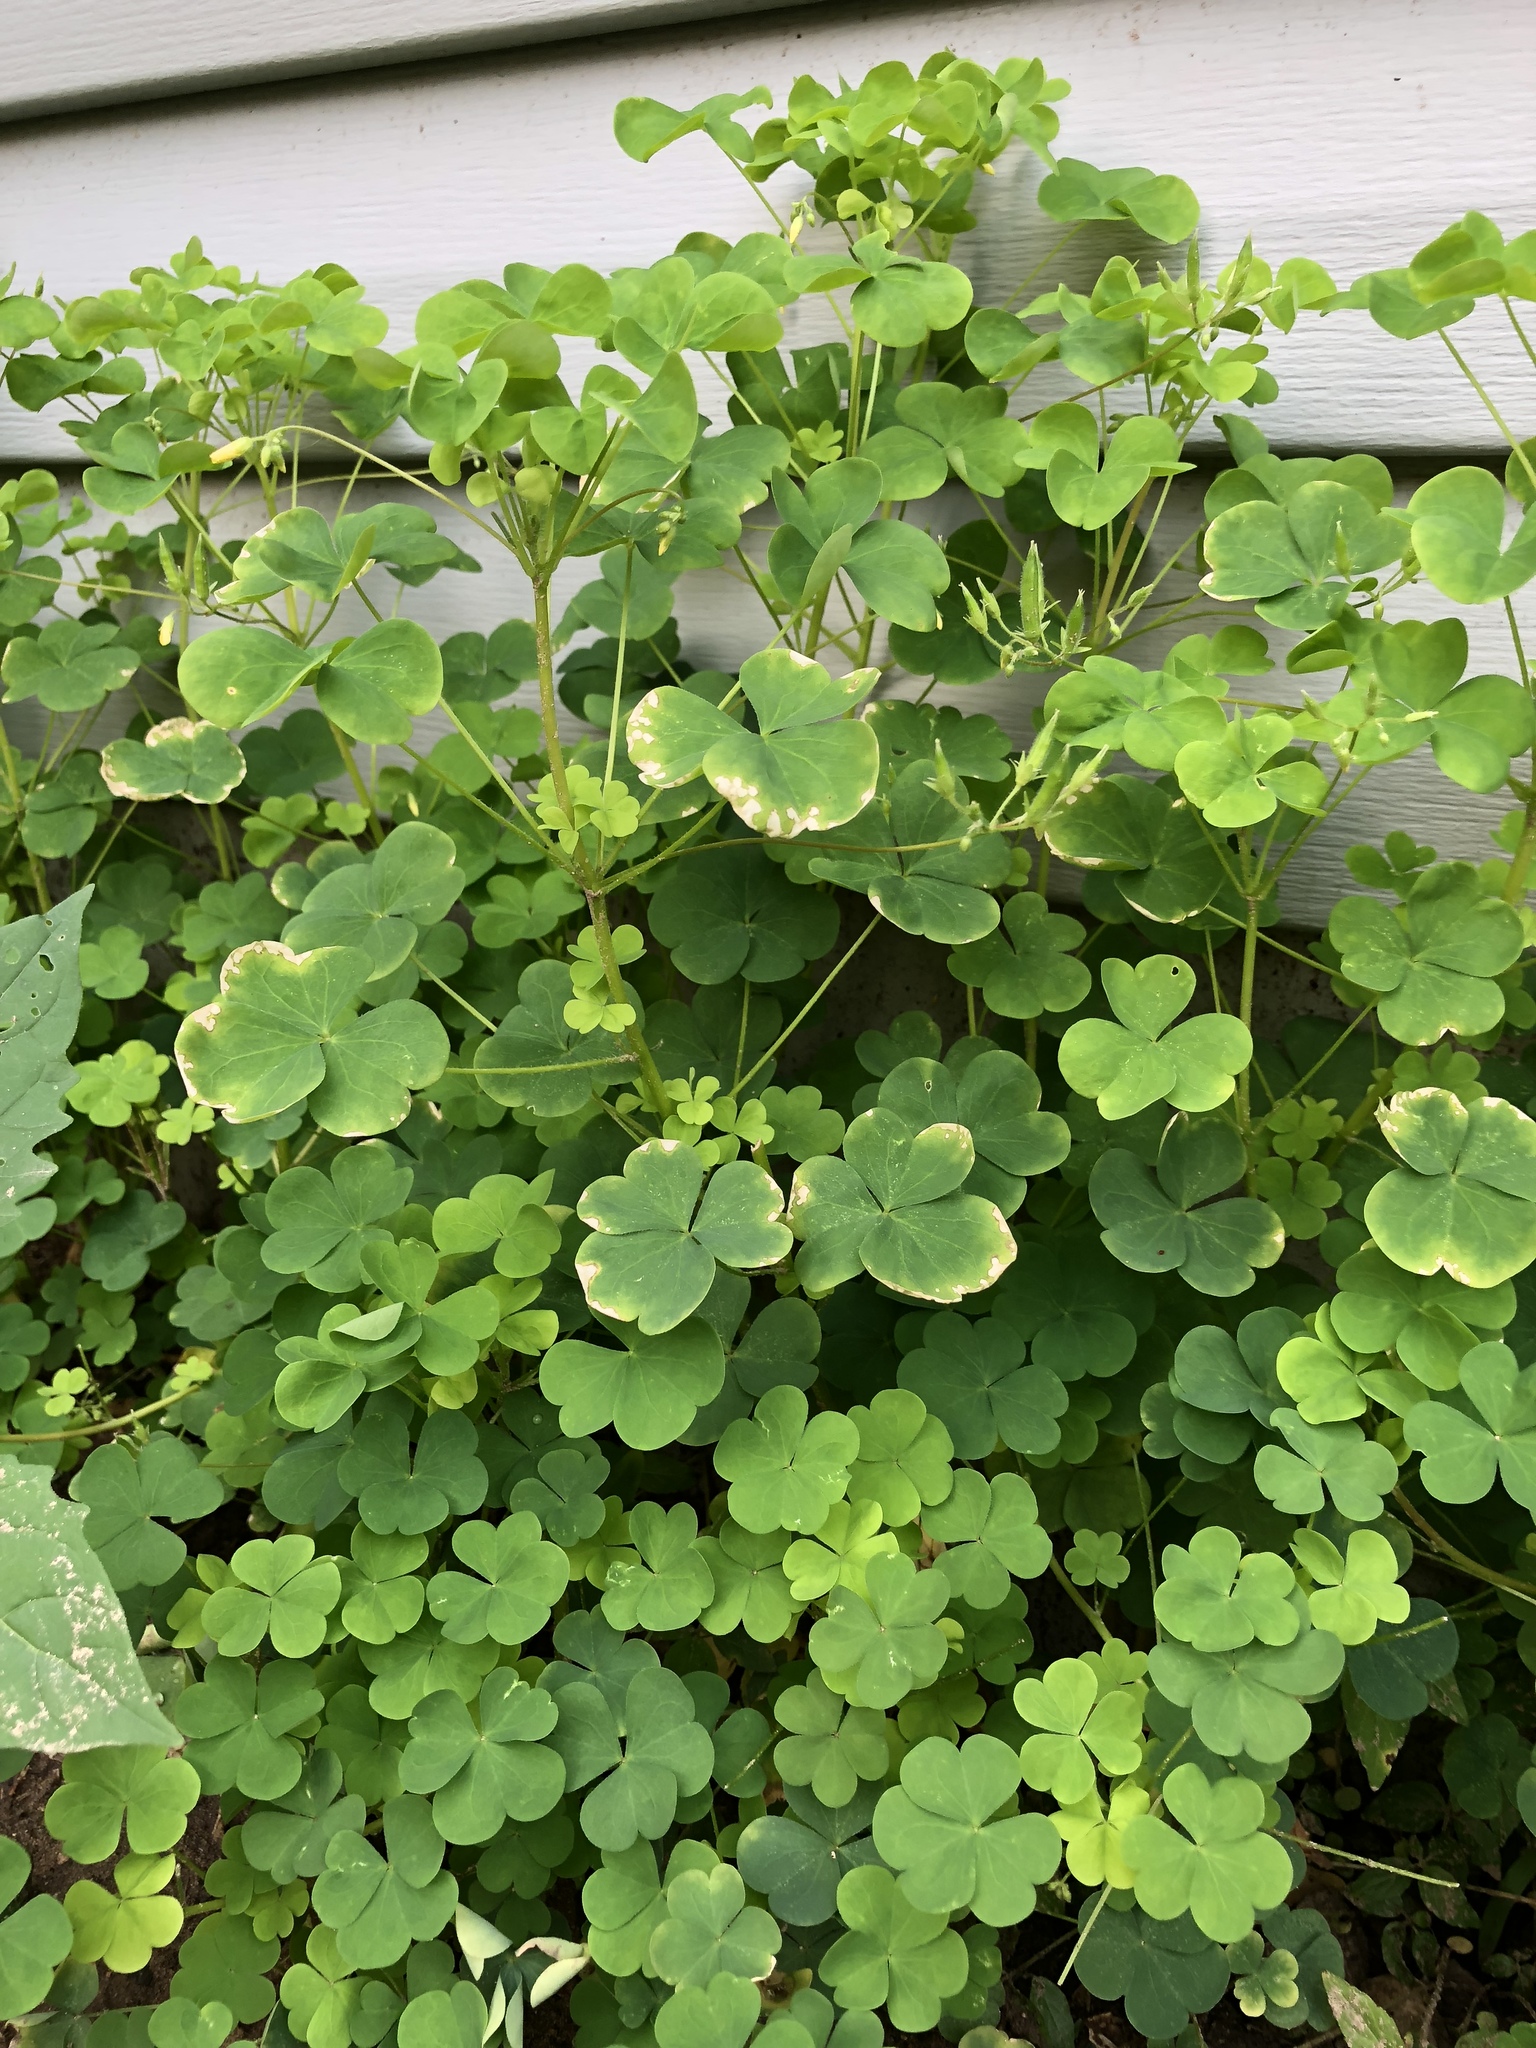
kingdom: Plantae
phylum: Tracheophyta
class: Magnoliopsida
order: Oxalidales
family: Oxalidaceae
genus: Oxalis
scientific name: Oxalis stricta
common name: Upright yellow-sorrel
